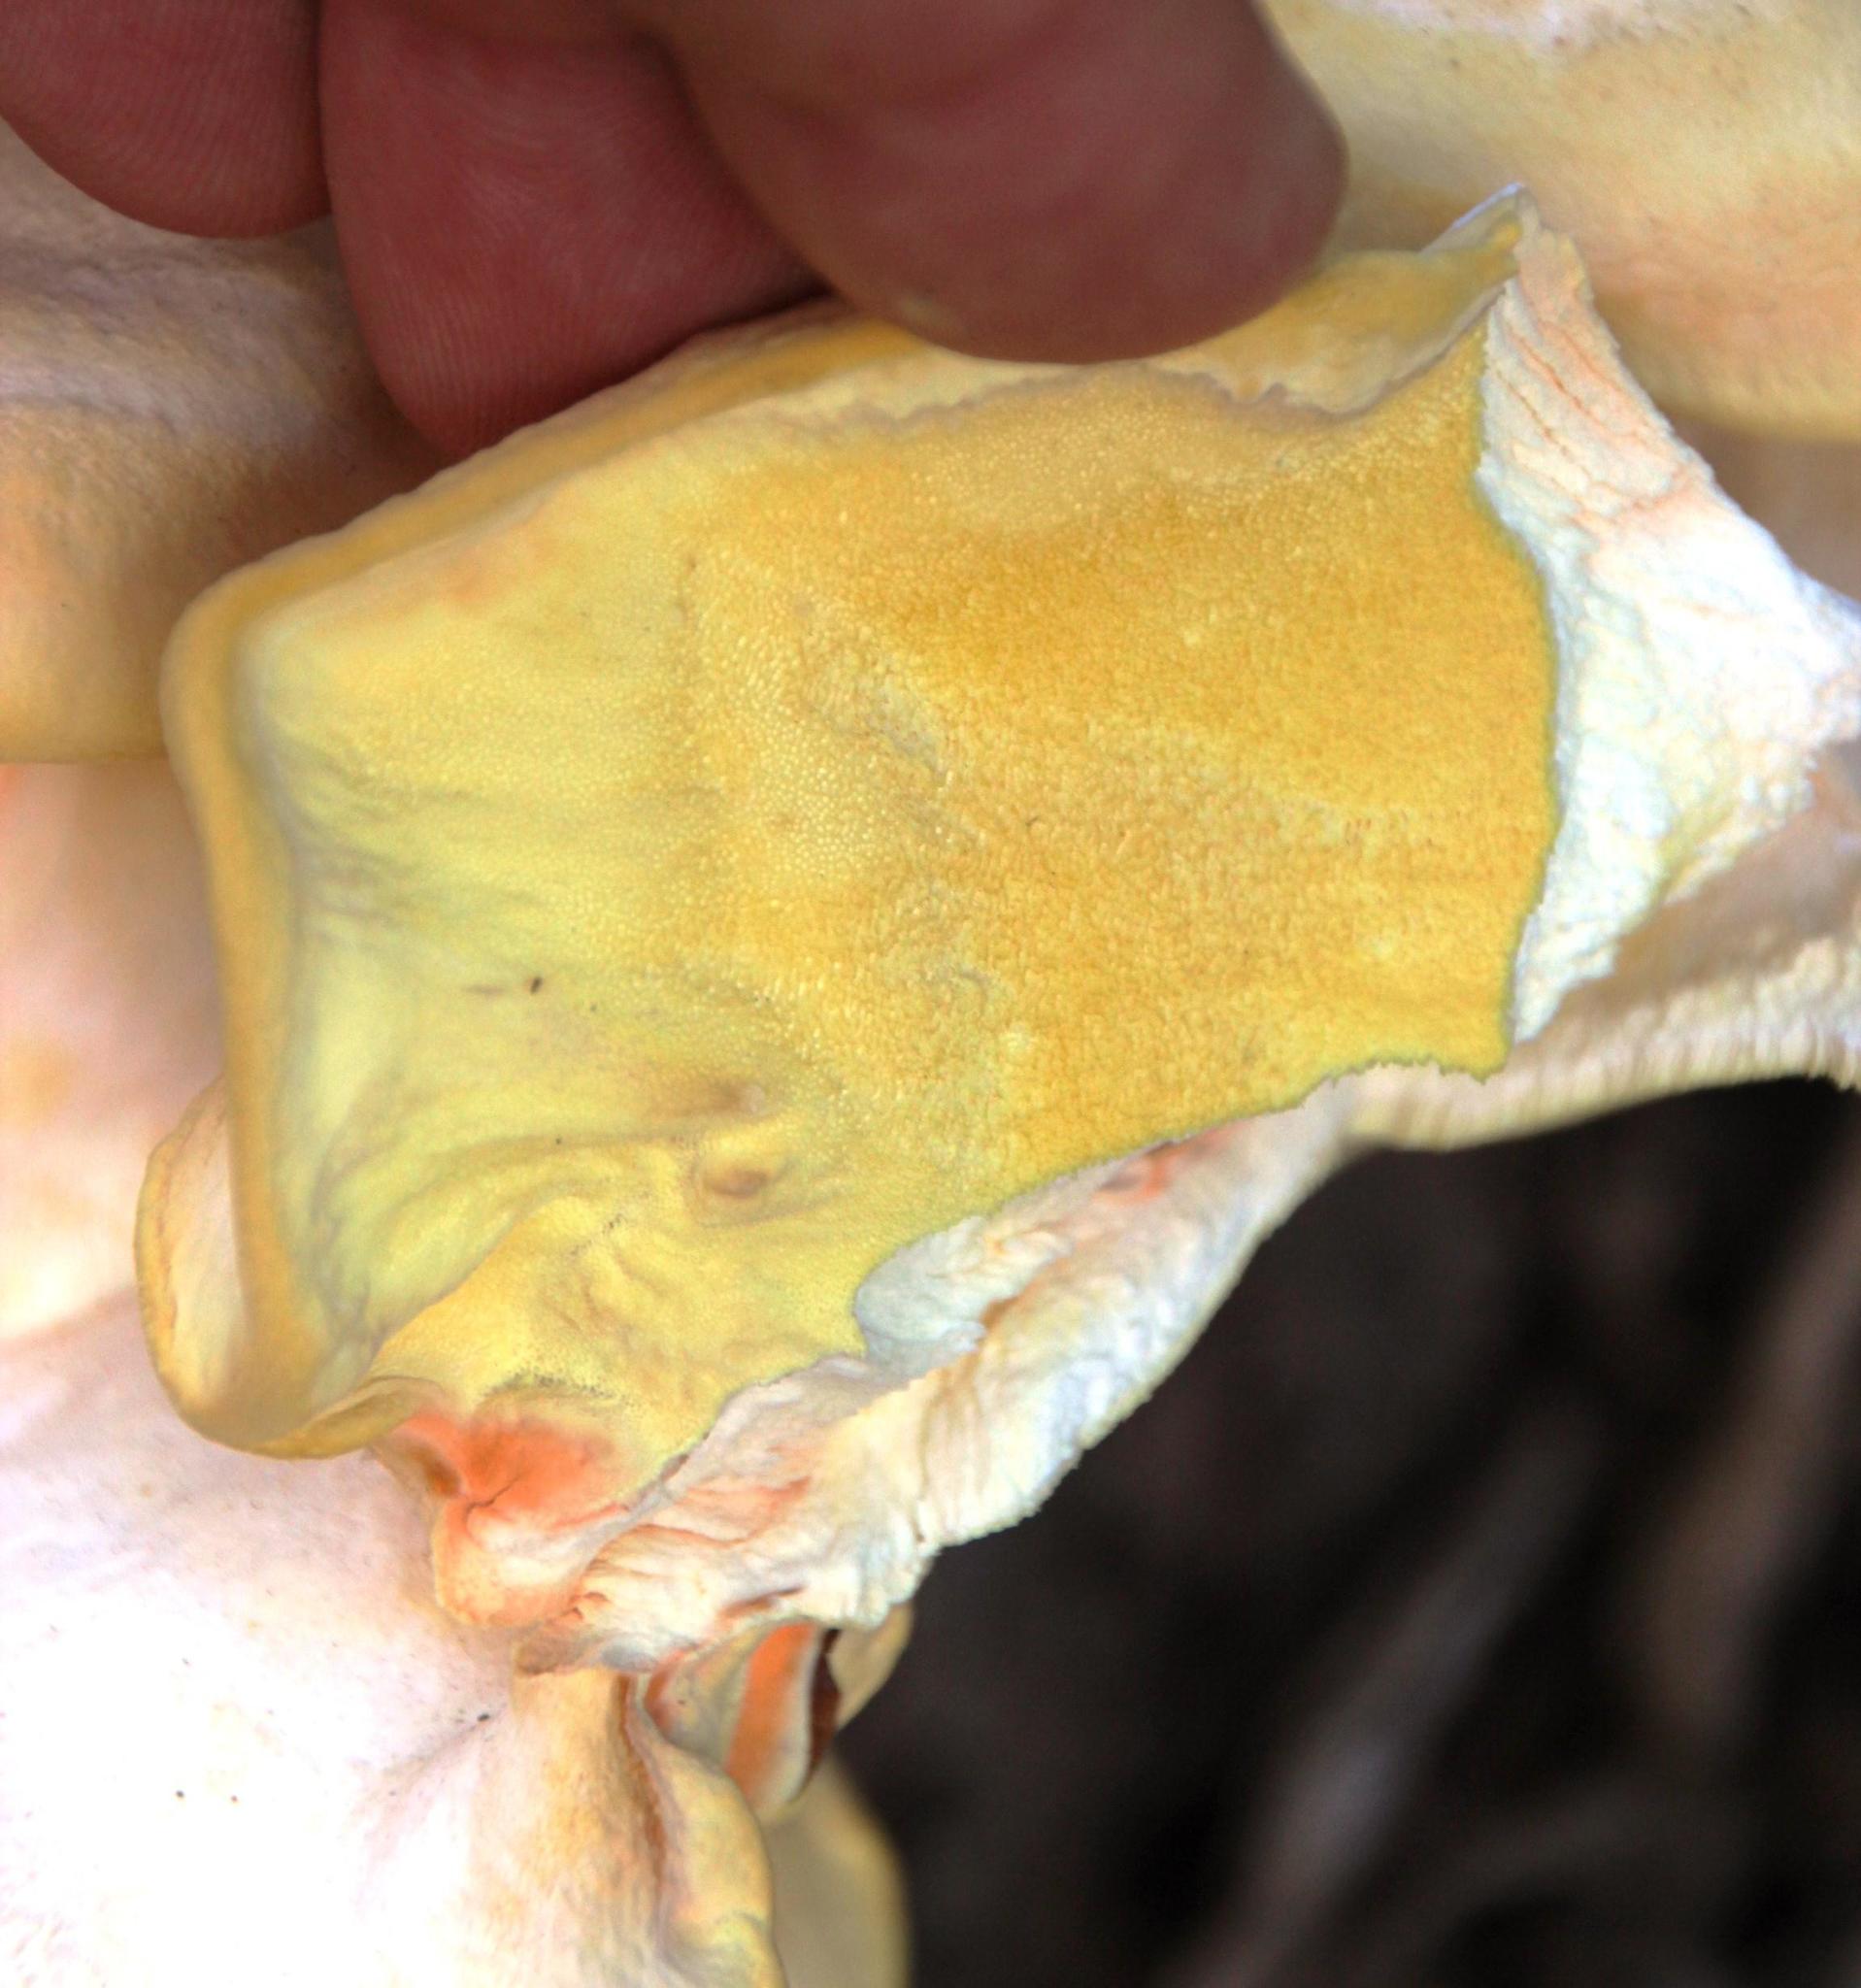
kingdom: Fungi
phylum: Basidiomycota
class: Agaricomycetes
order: Polyporales
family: Laetiporaceae
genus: Laetiporus
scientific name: Laetiporus sulphureus
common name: Chicken of the woods
